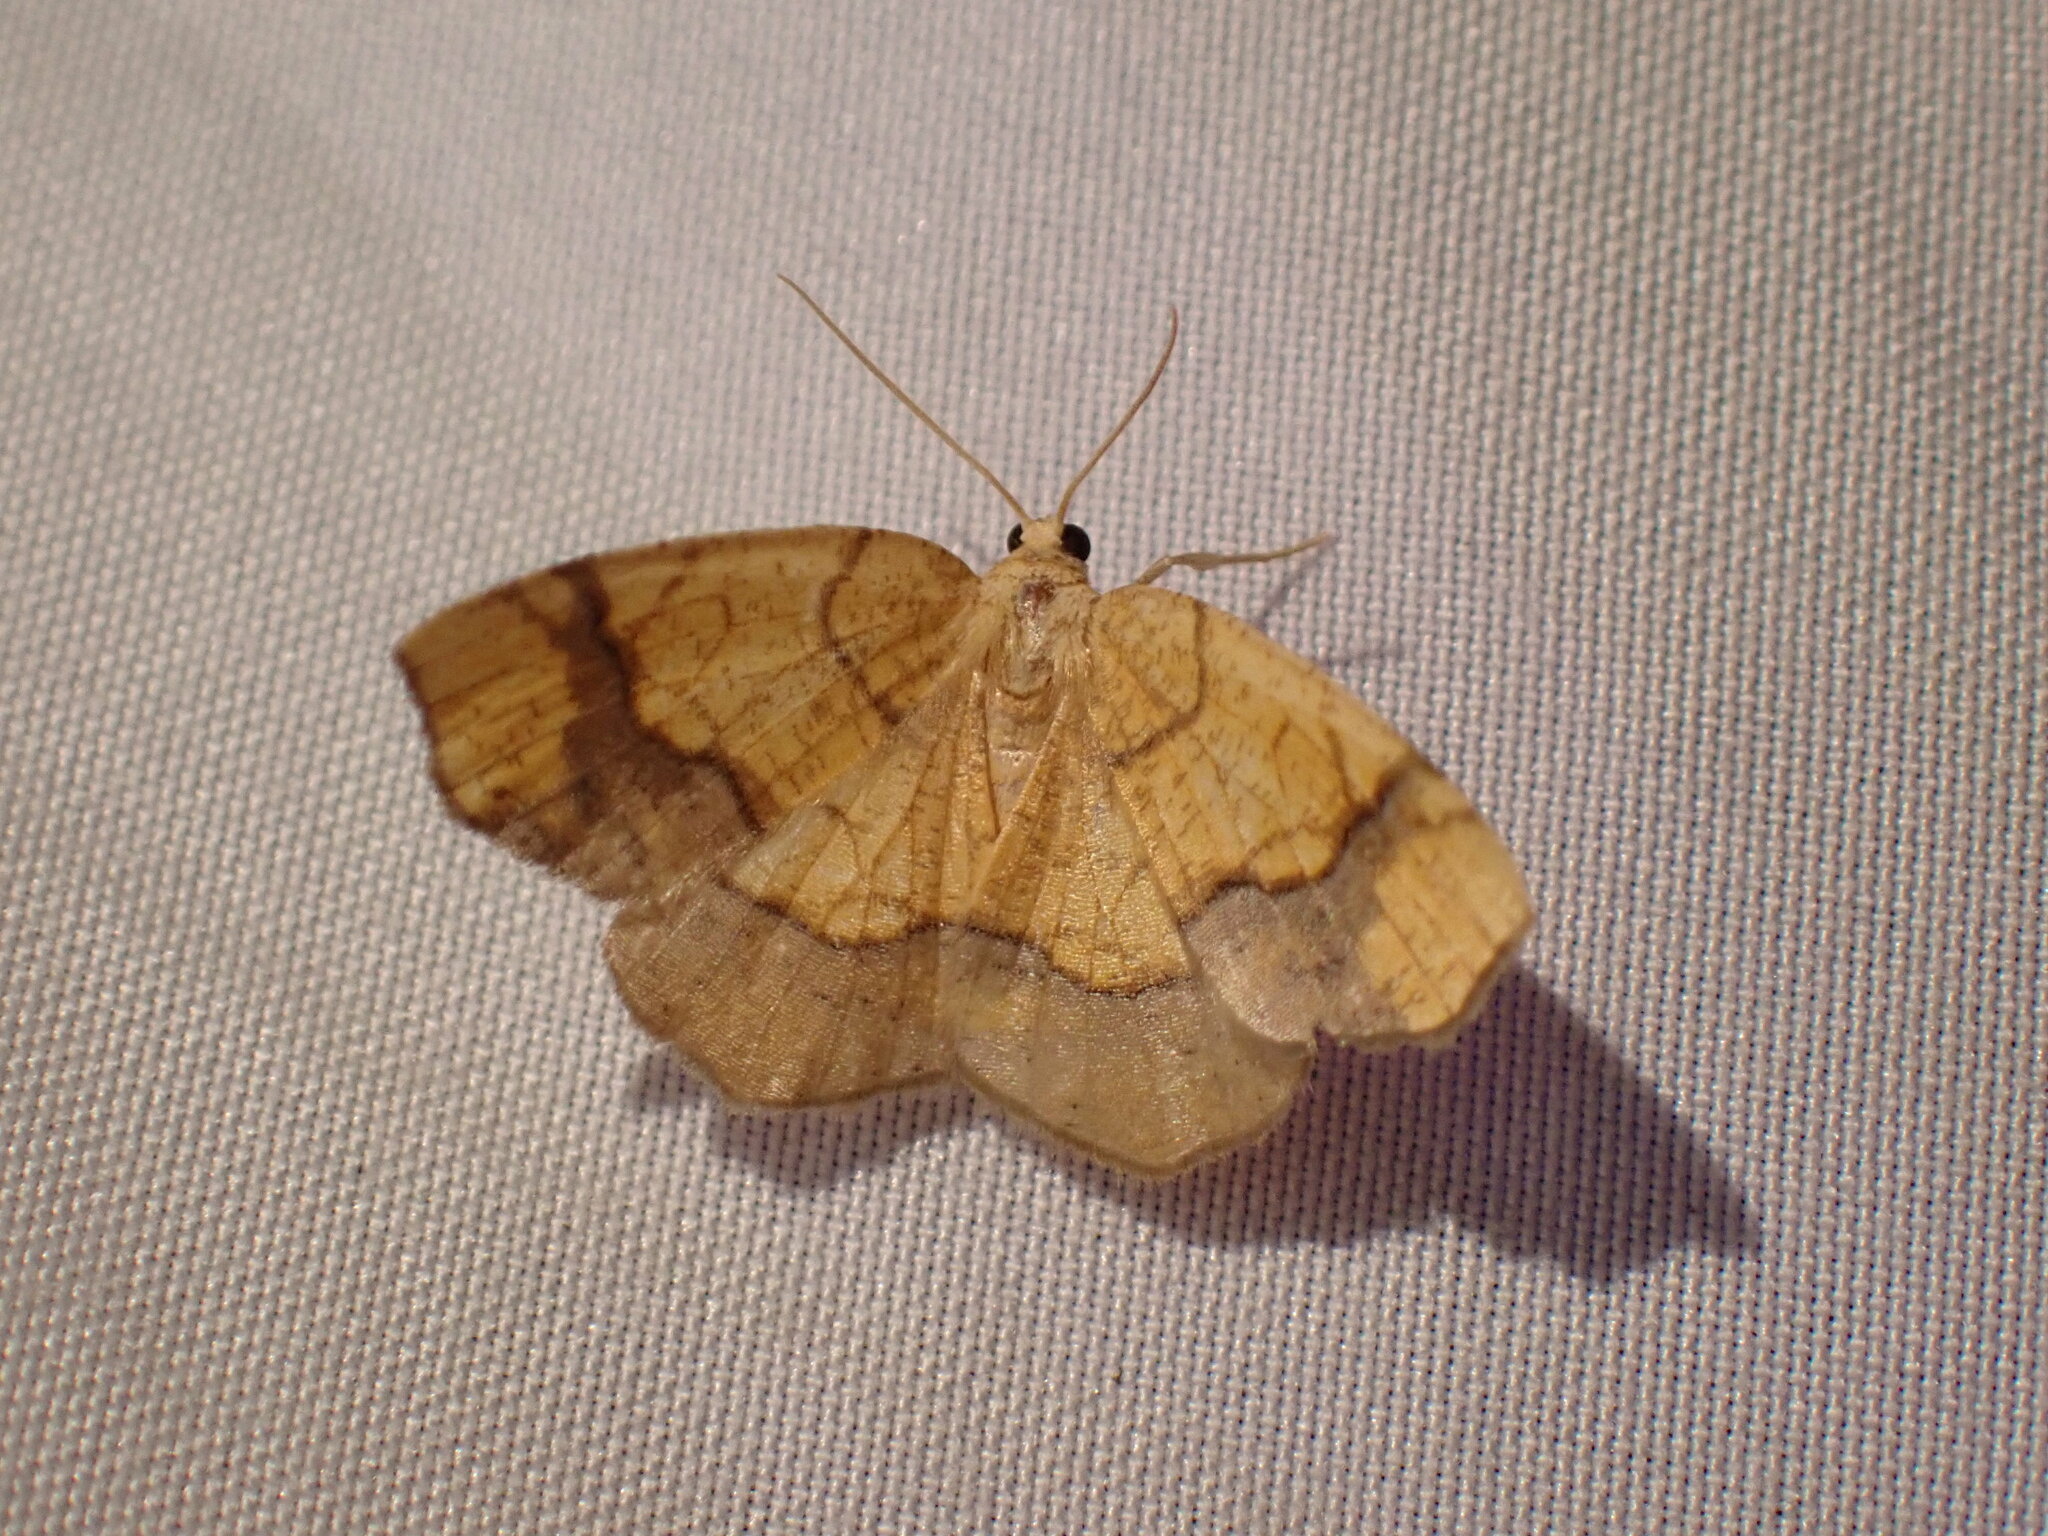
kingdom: Animalia
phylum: Arthropoda
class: Insecta
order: Lepidoptera
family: Geometridae
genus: Nematocampa
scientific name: Nematocampa resistaria
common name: Horned spanworm moth
